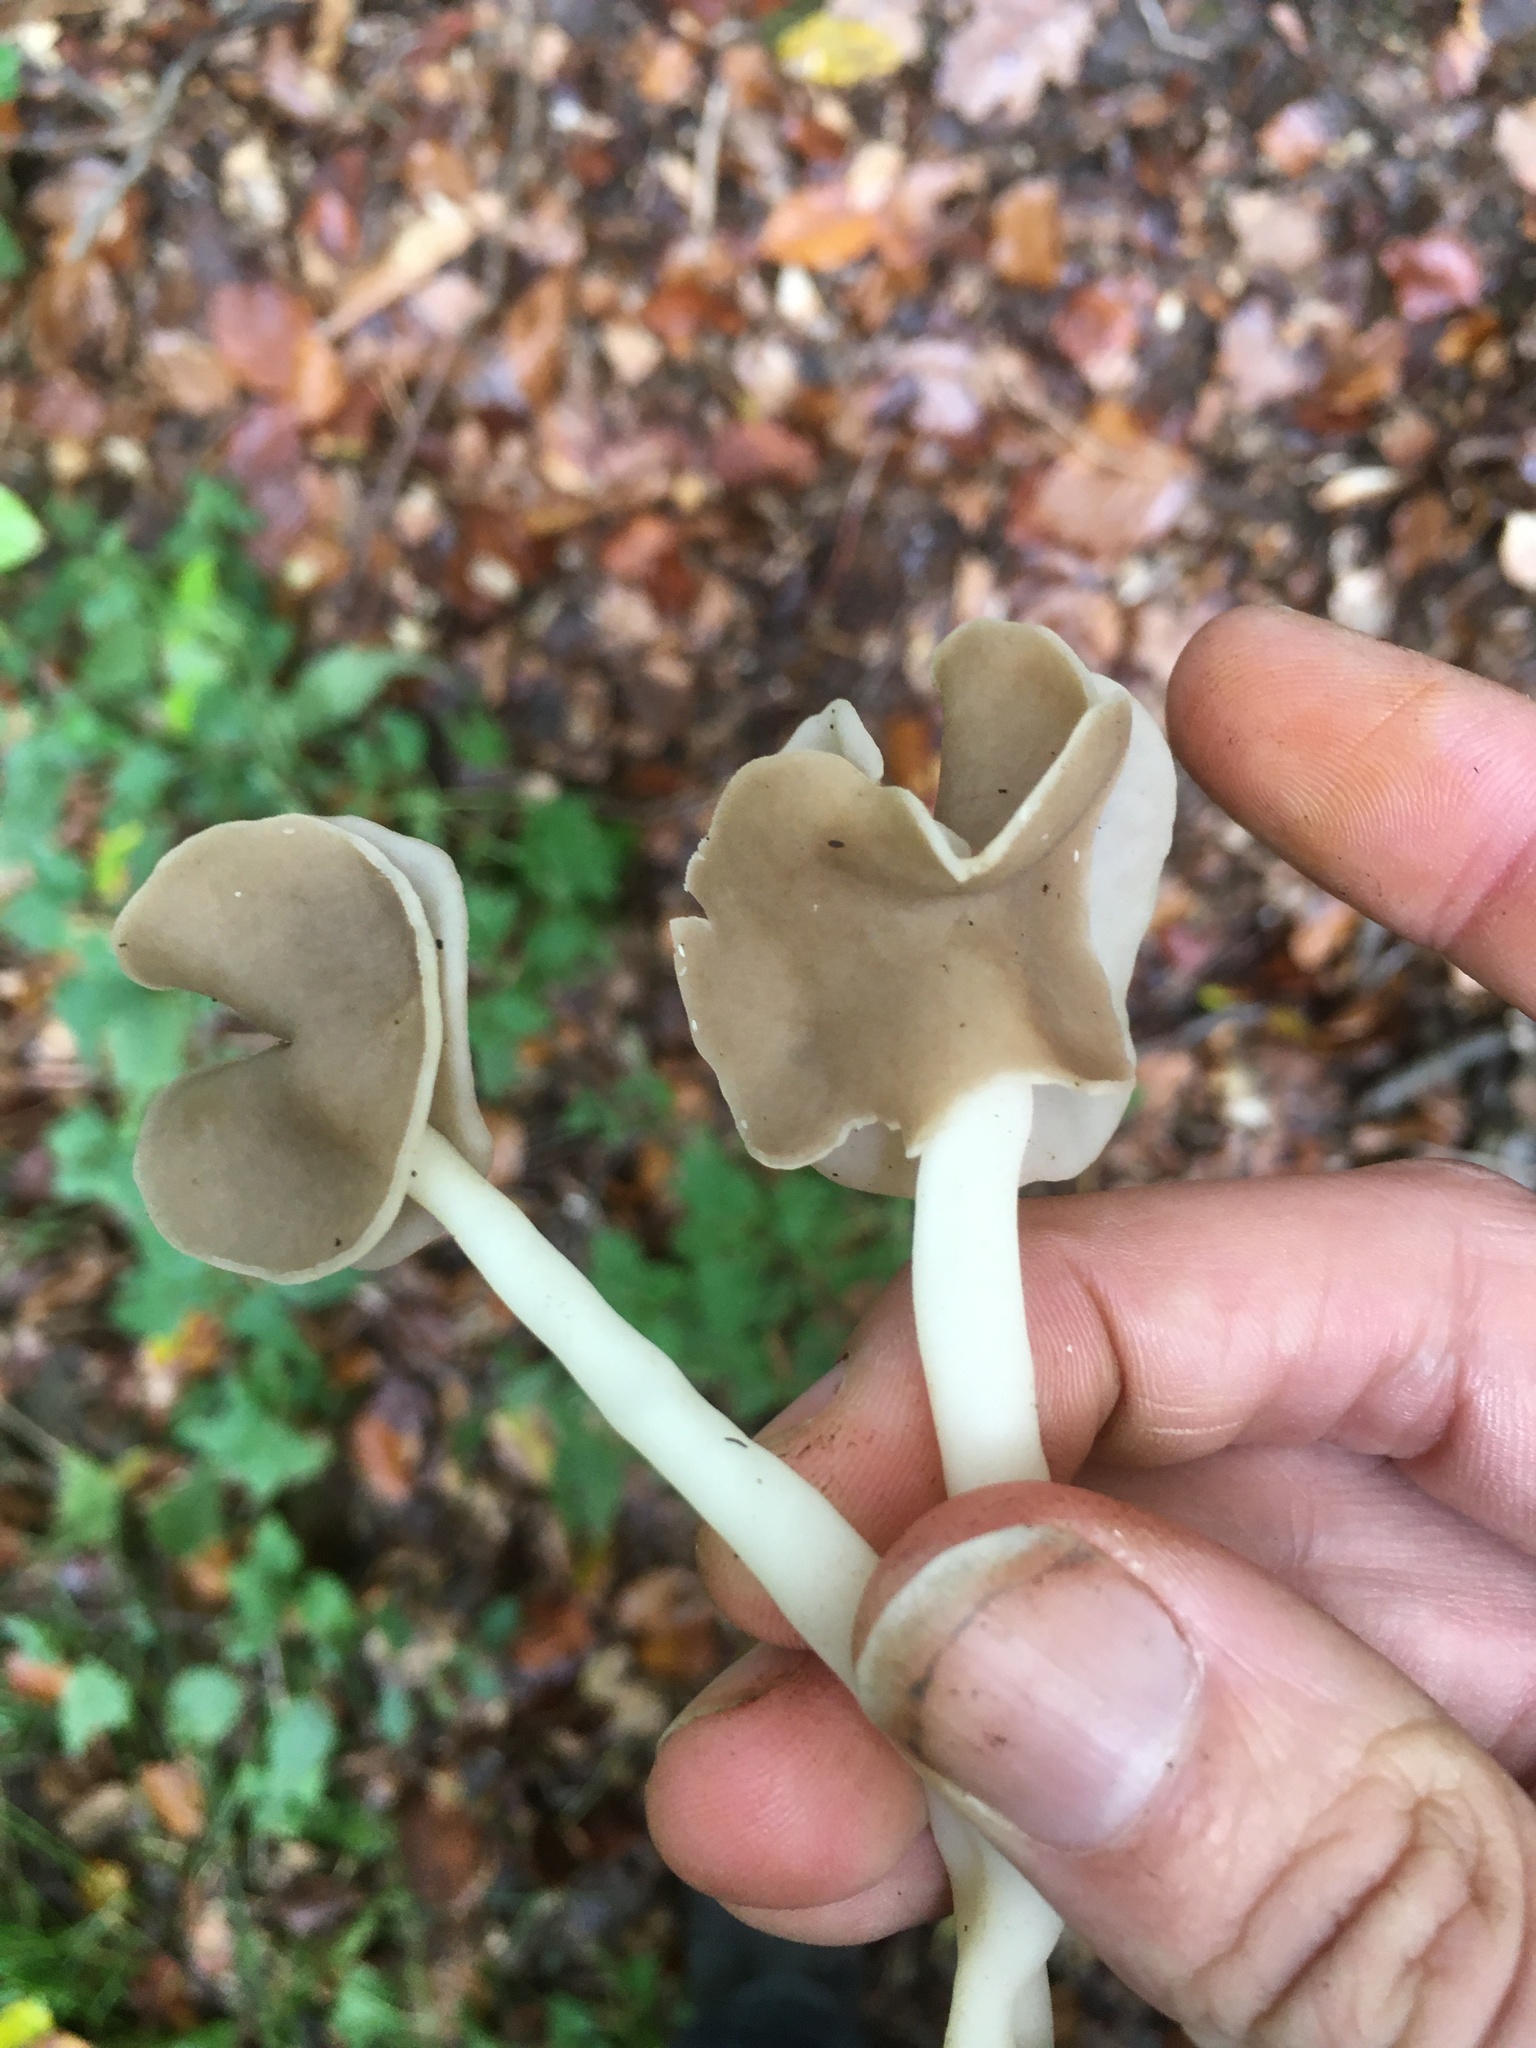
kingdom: Fungi
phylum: Ascomycota
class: Pezizomycetes
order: Pezizales
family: Helvellaceae
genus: Helvella
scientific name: Helvella levis
